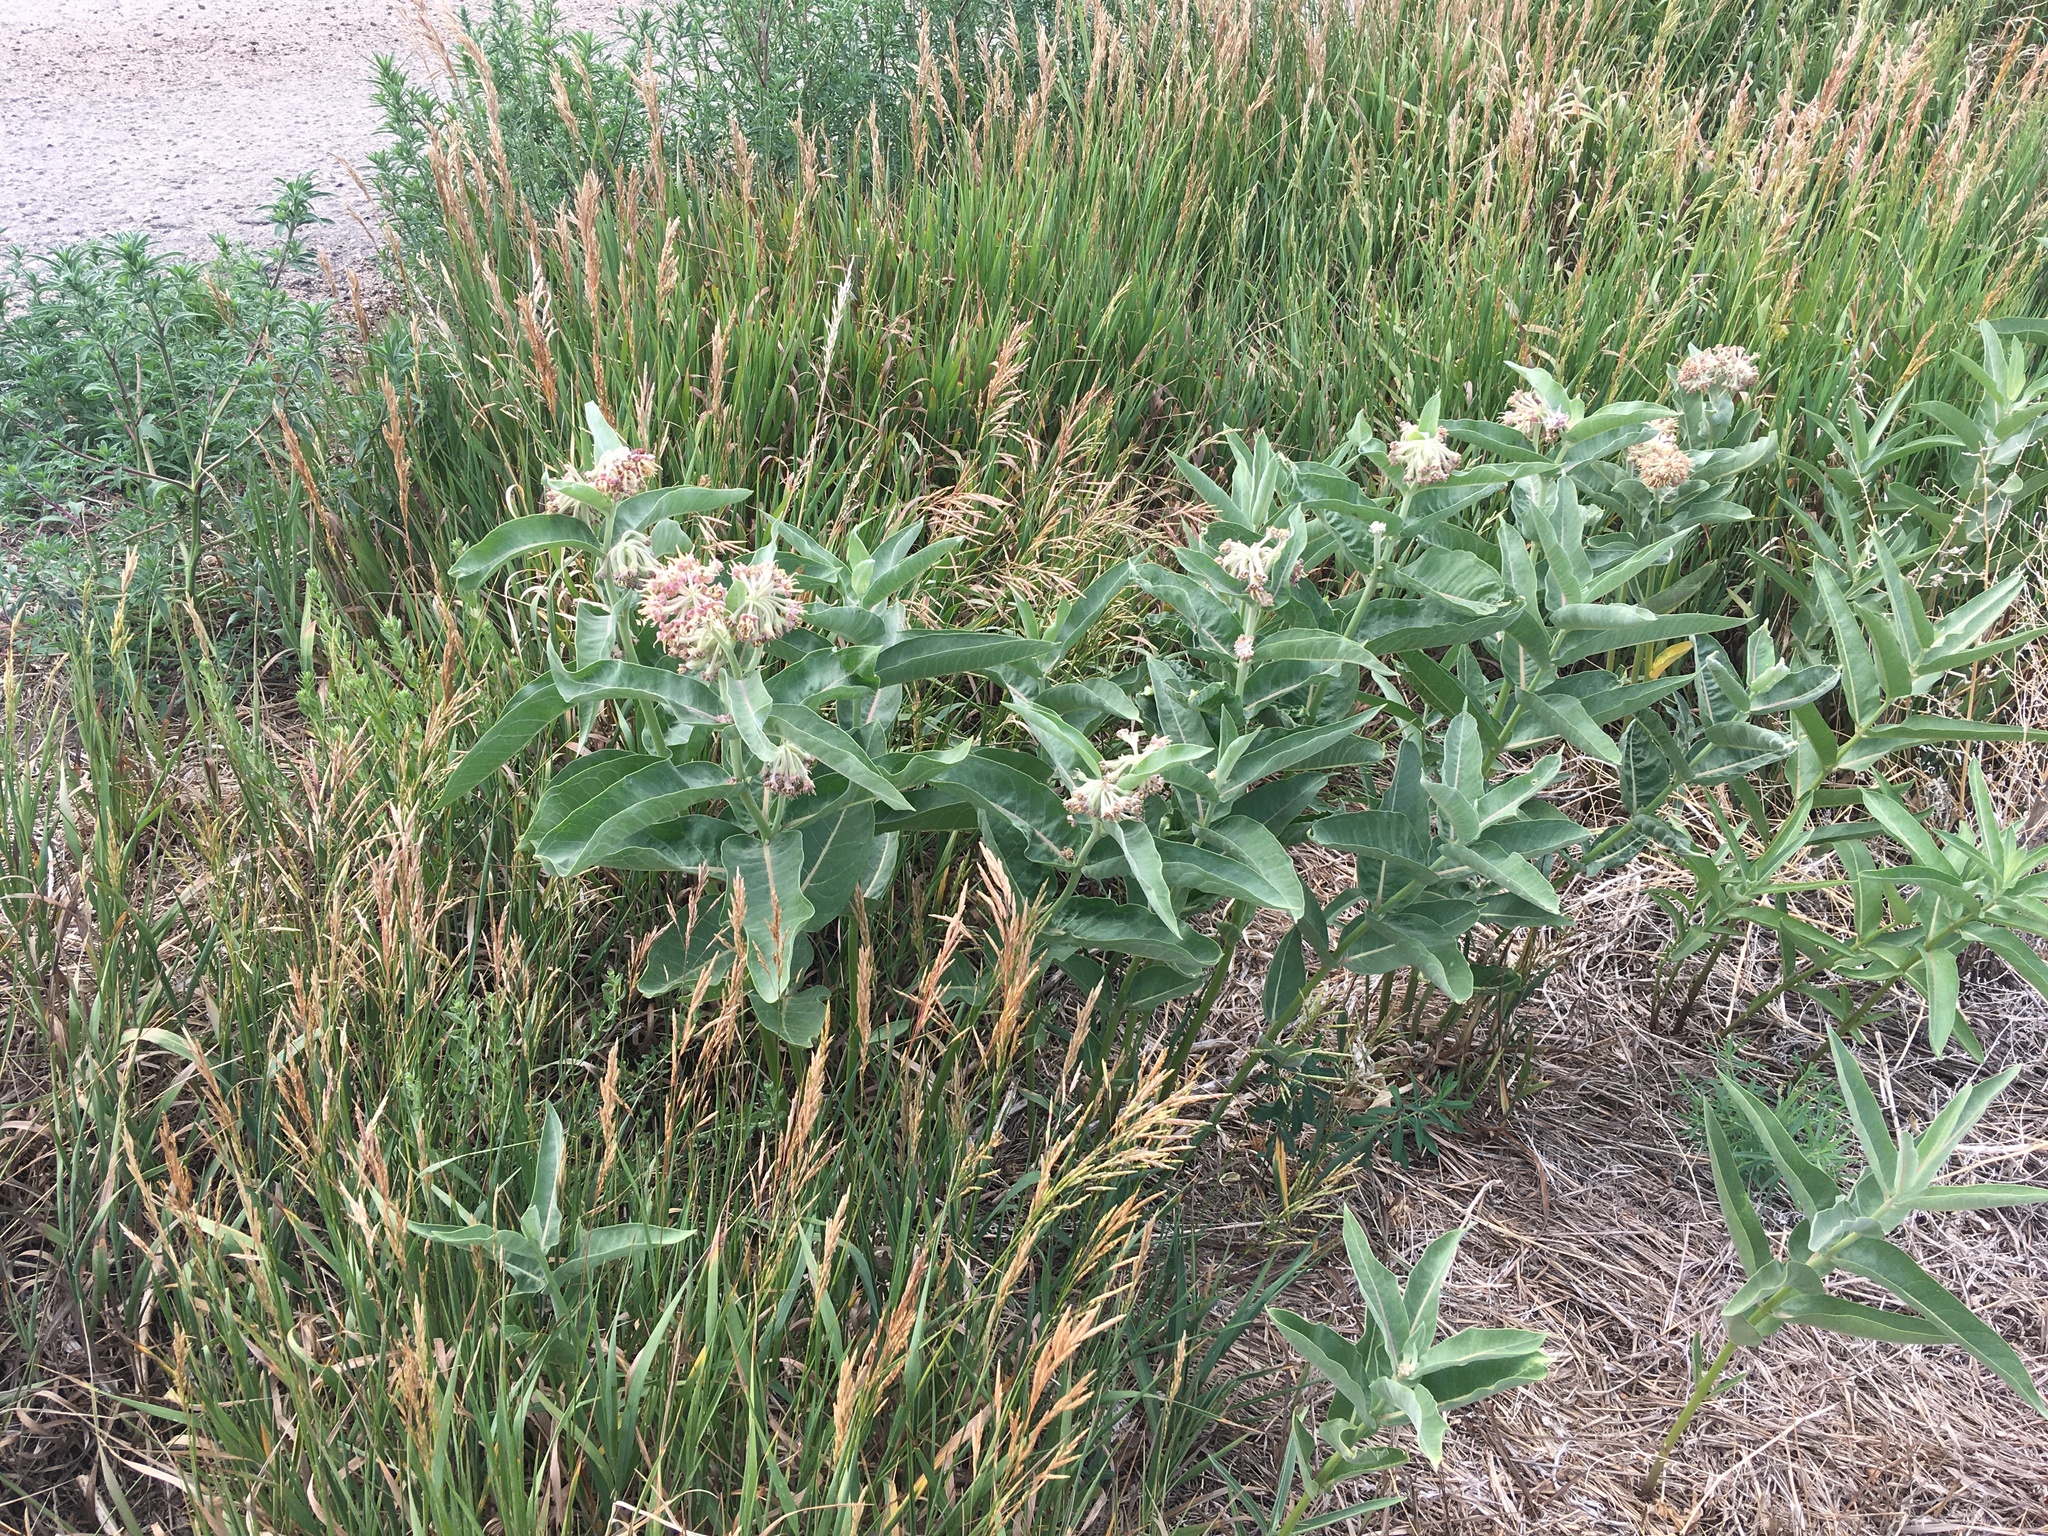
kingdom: Plantae
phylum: Tracheophyta
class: Magnoliopsida
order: Gentianales
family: Apocynaceae
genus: Asclepias
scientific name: Asclepias speciosa
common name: Showy milkweed
